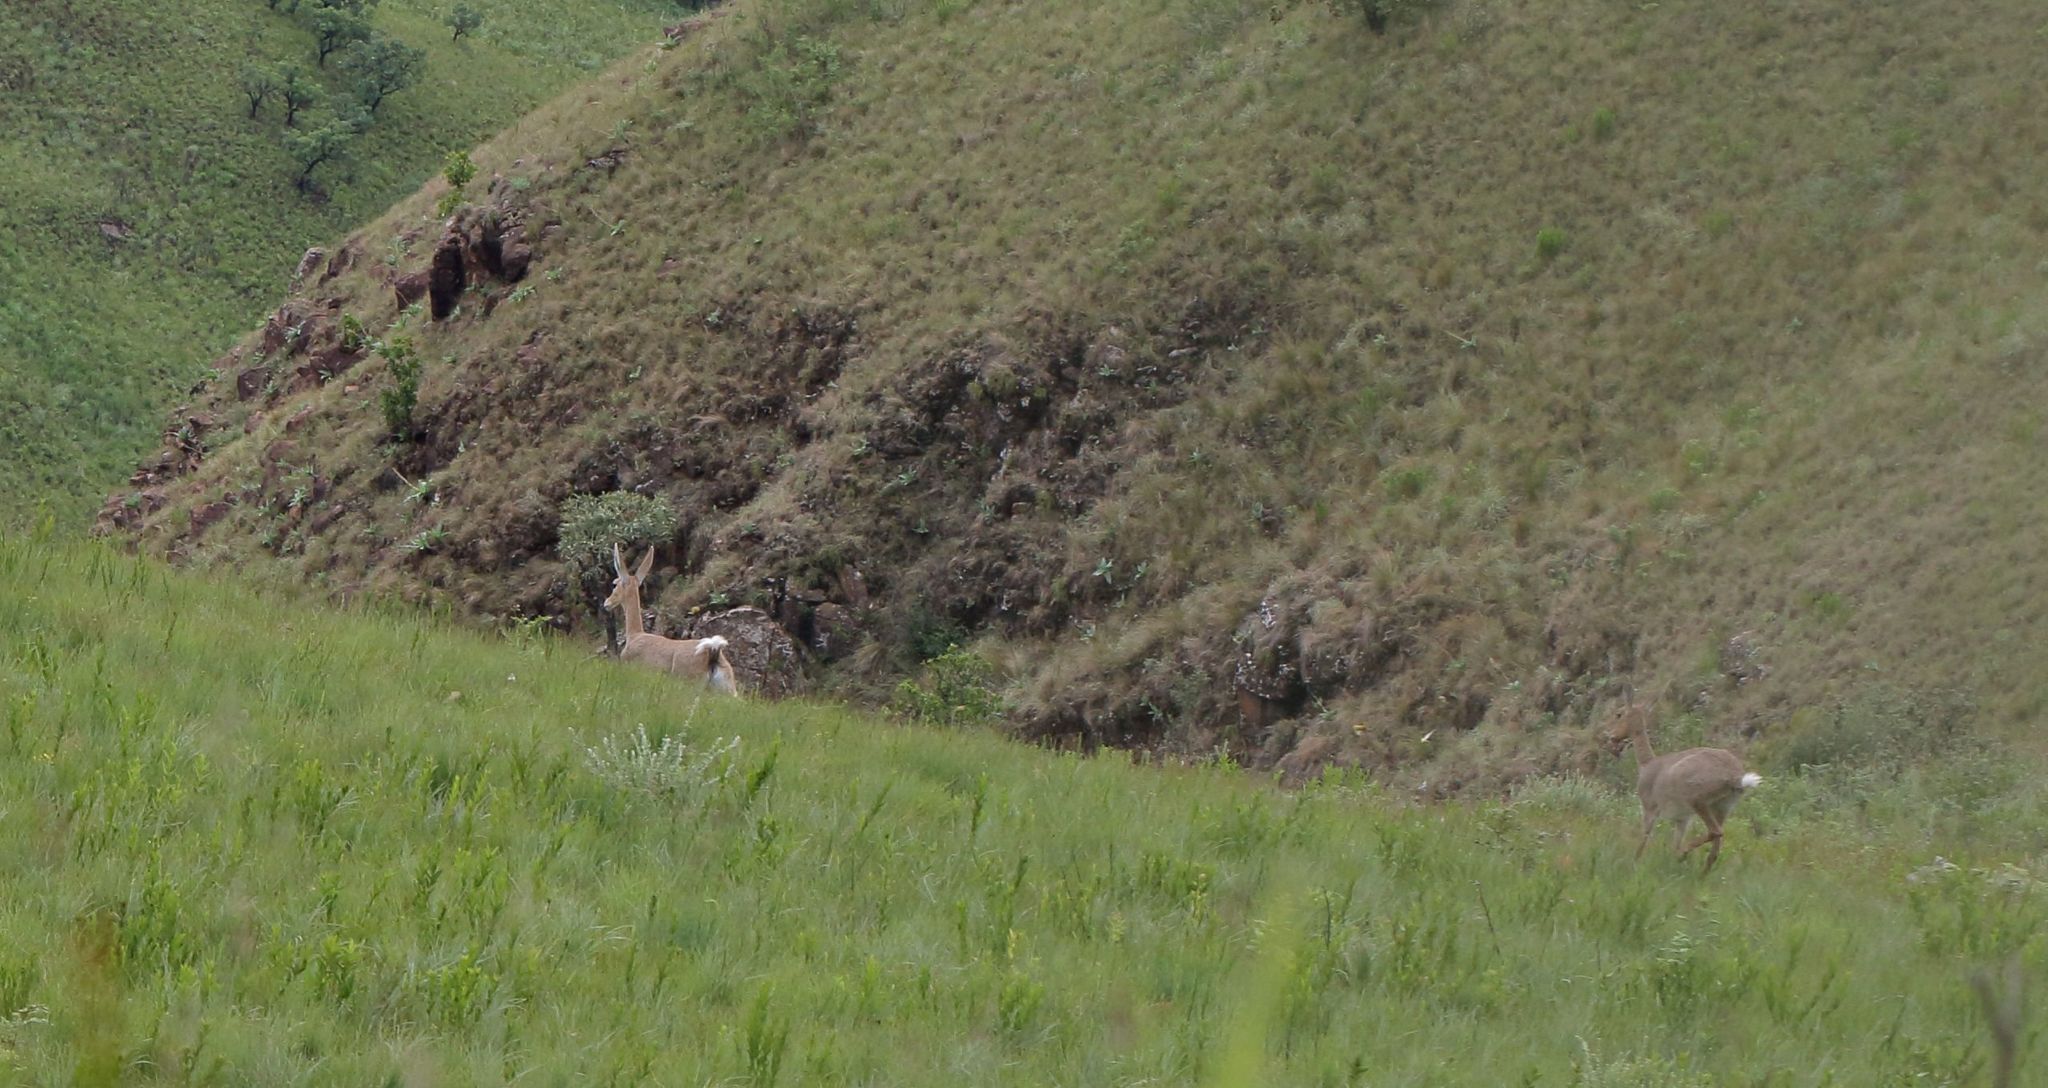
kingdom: Animalia
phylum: Chordata
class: Mammalia
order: Artiodactyla
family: Bovidae
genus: Pelea
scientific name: Pelea capreolus
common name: Common rhebok
